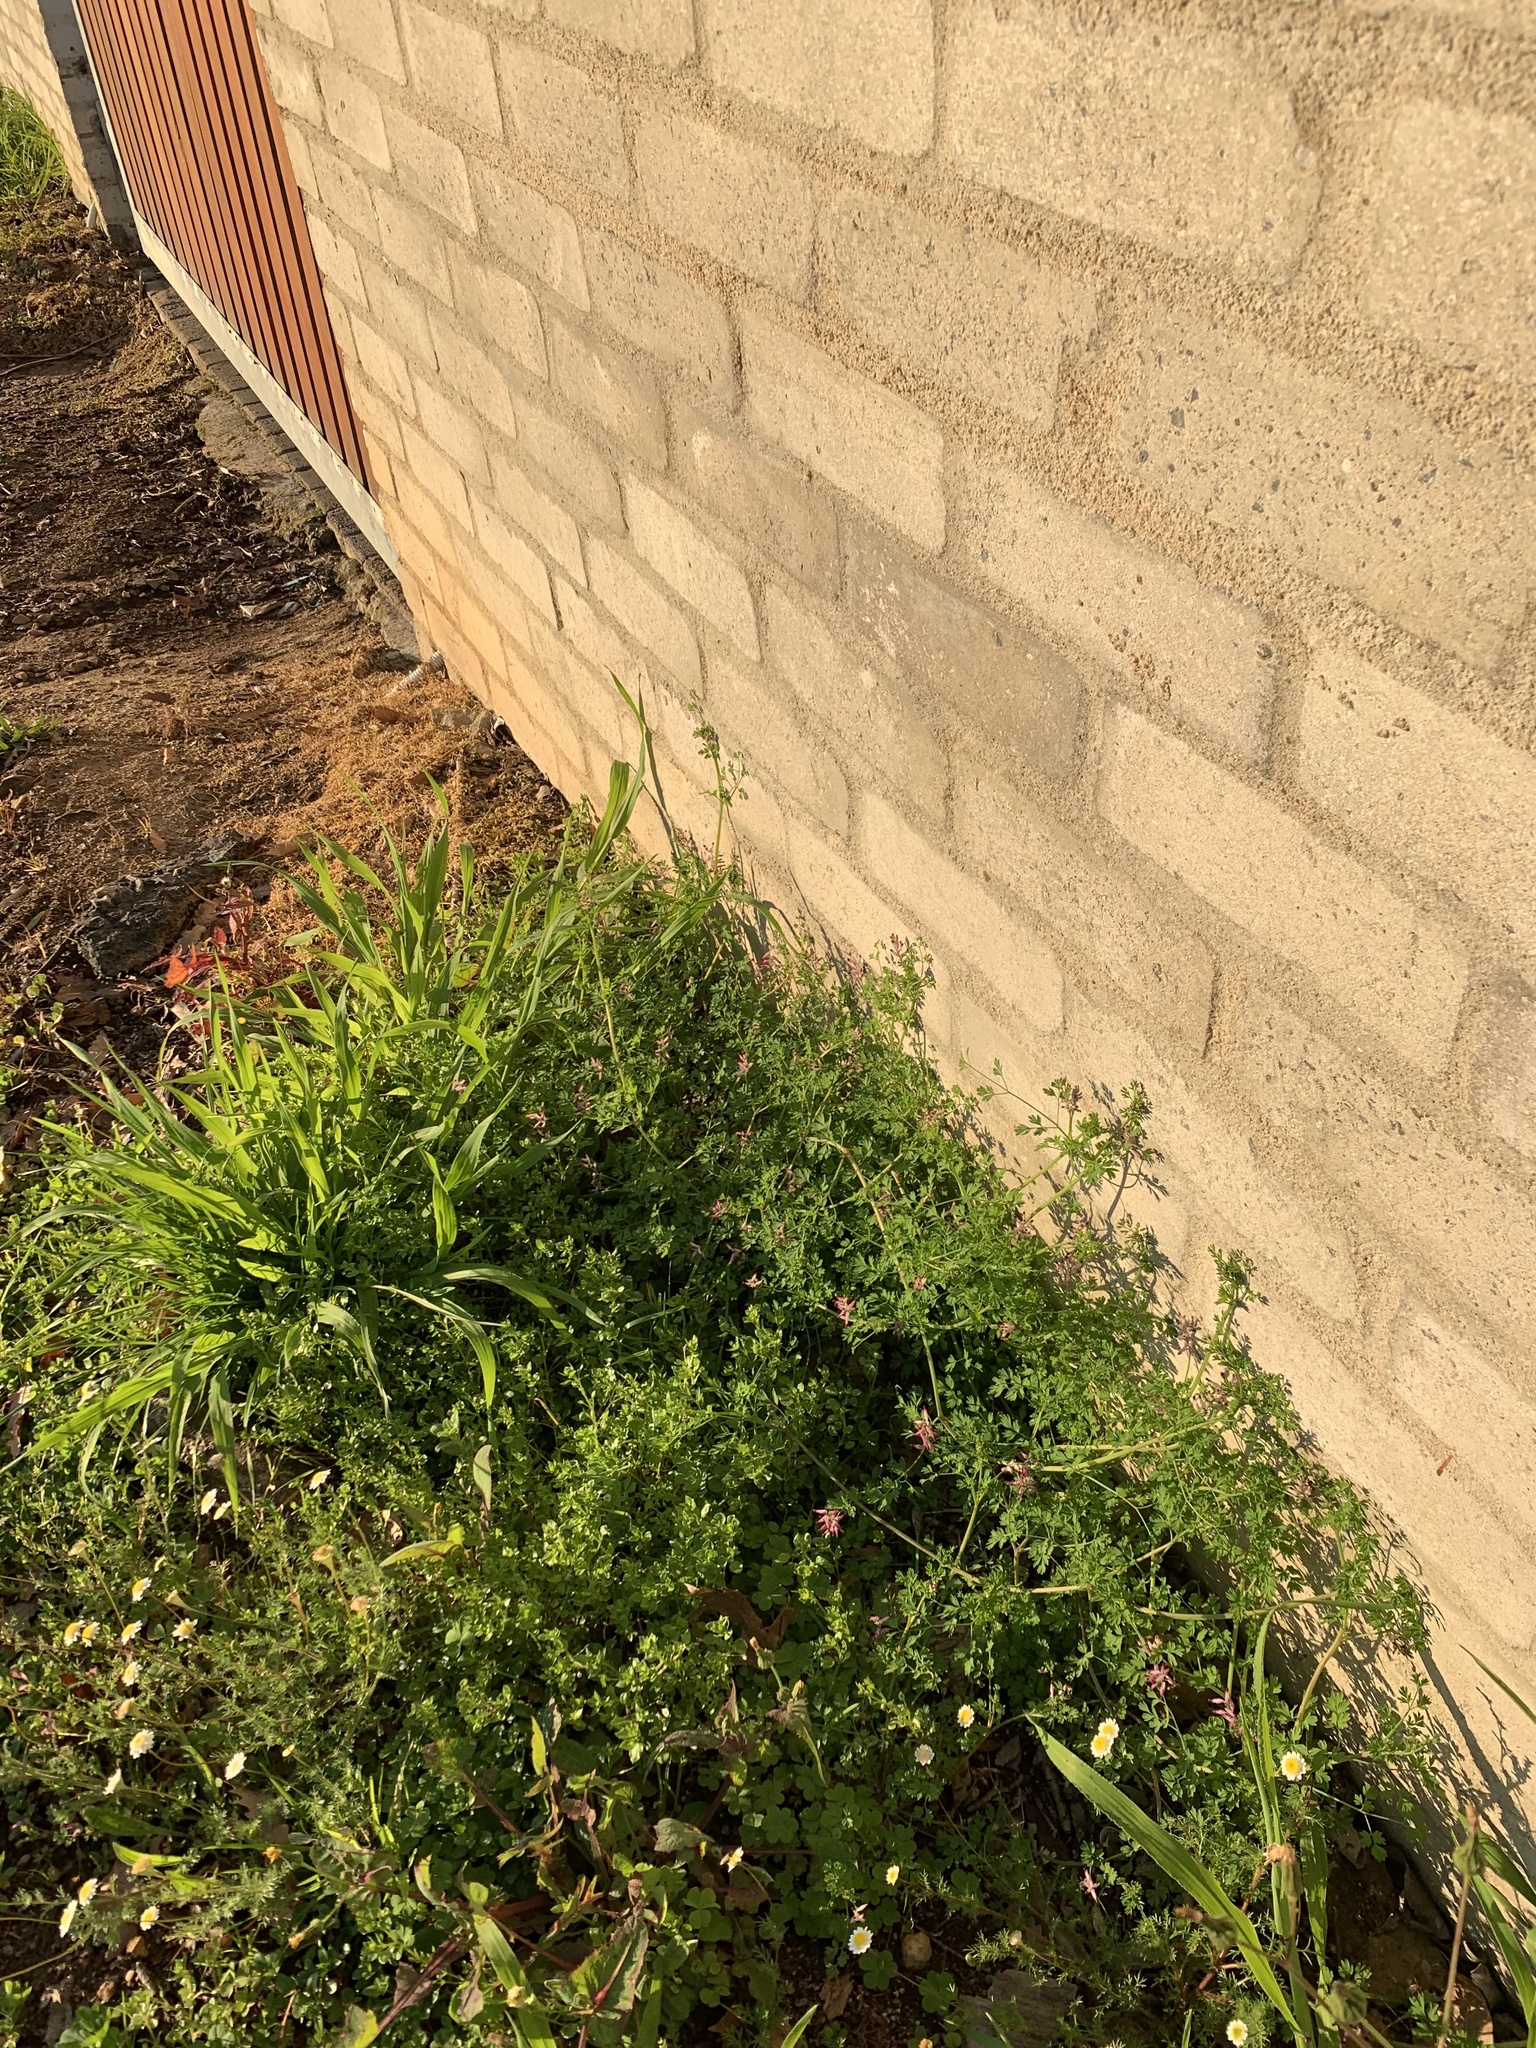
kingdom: Plantae
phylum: Tracheophyta
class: Magnoliopsida
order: Ranunculales
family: Papaveraceae
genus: Fumaria
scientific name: Fumaria muralis
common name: Common ramping-fumitory
